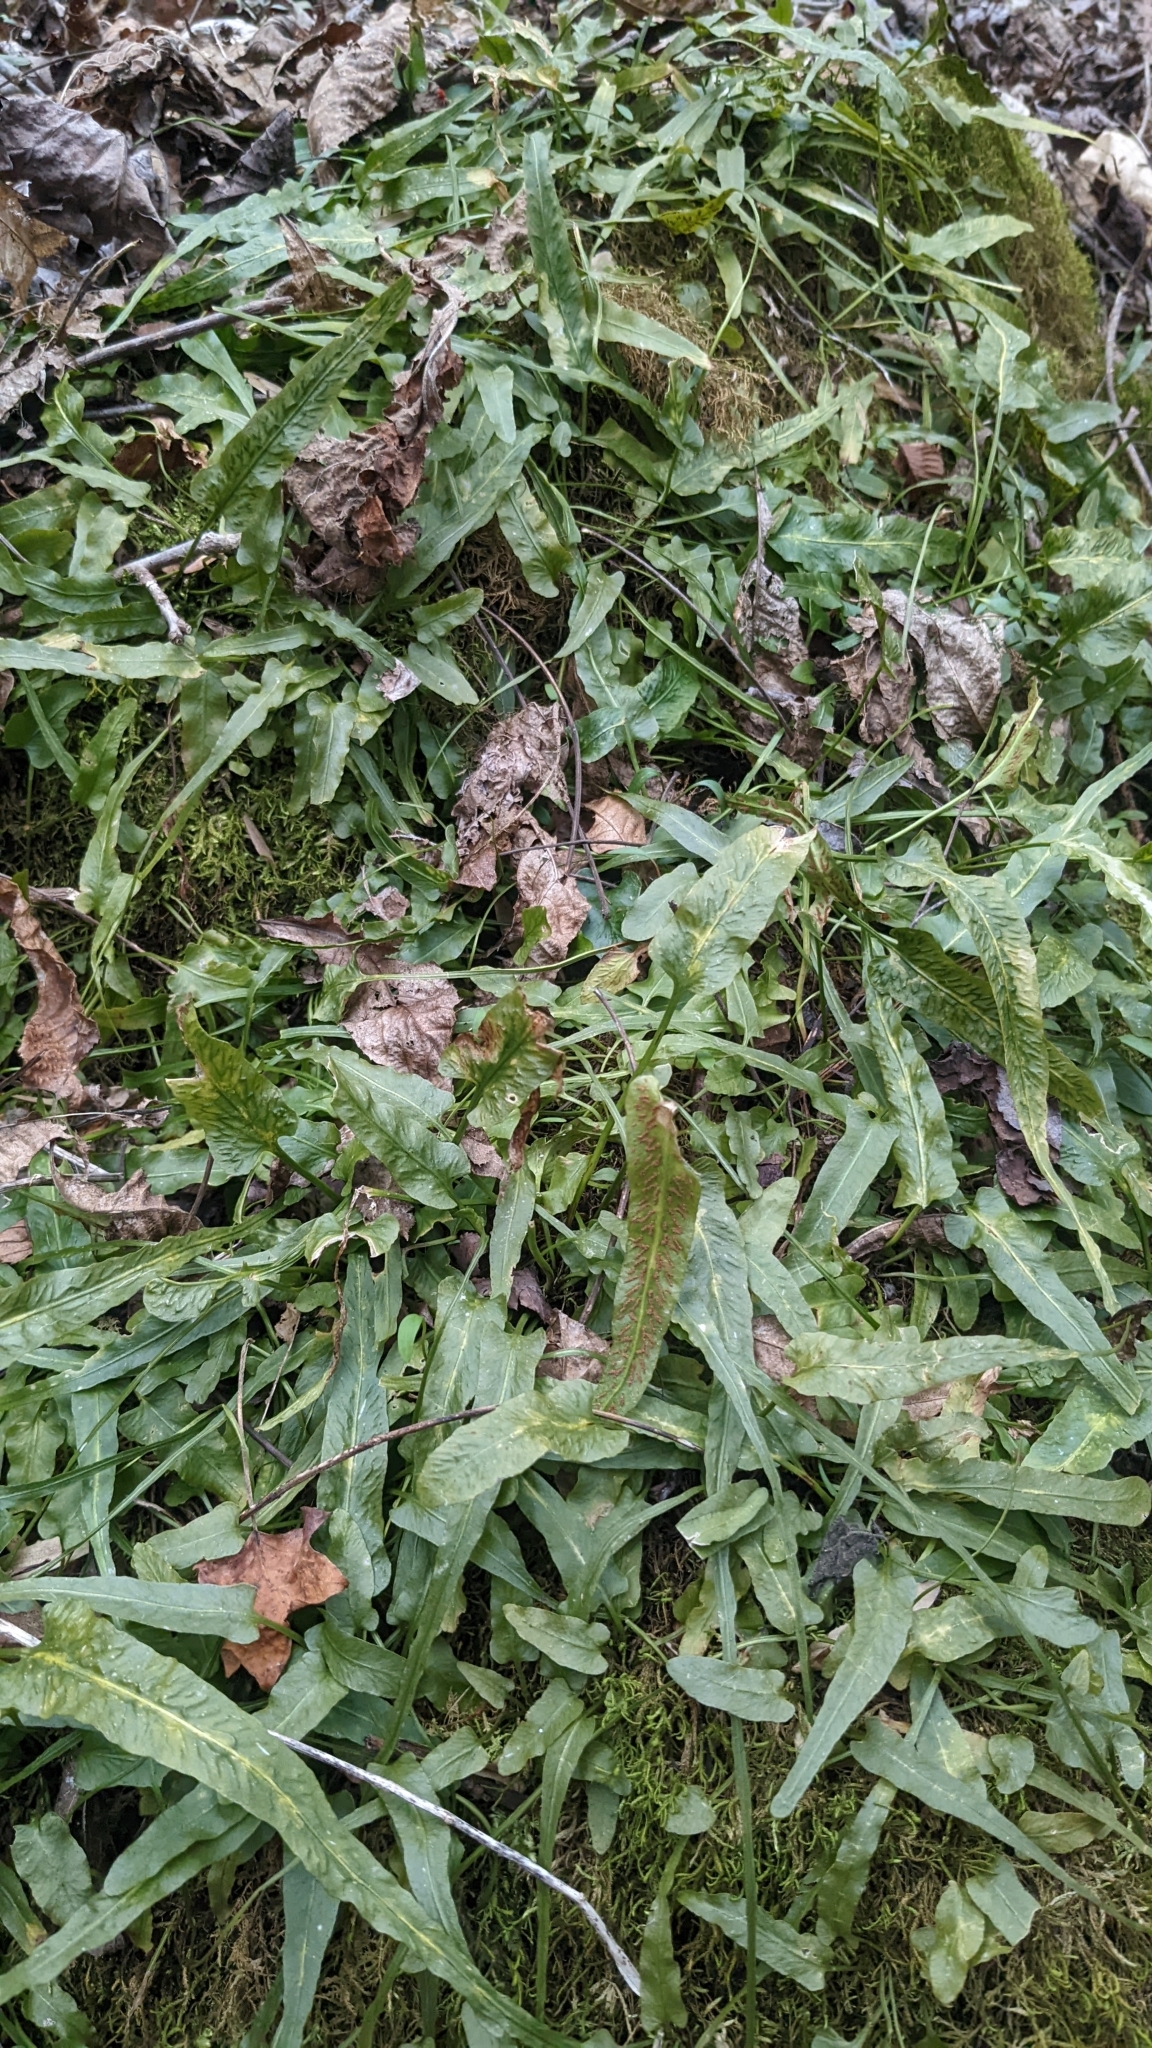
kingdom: Plantae
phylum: Tracheophyta
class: Polypodiopsida
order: Polypodiales
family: Aspleniaceae
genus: Asplenium
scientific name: Asplenium rhizophyllum
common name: Walking fern
